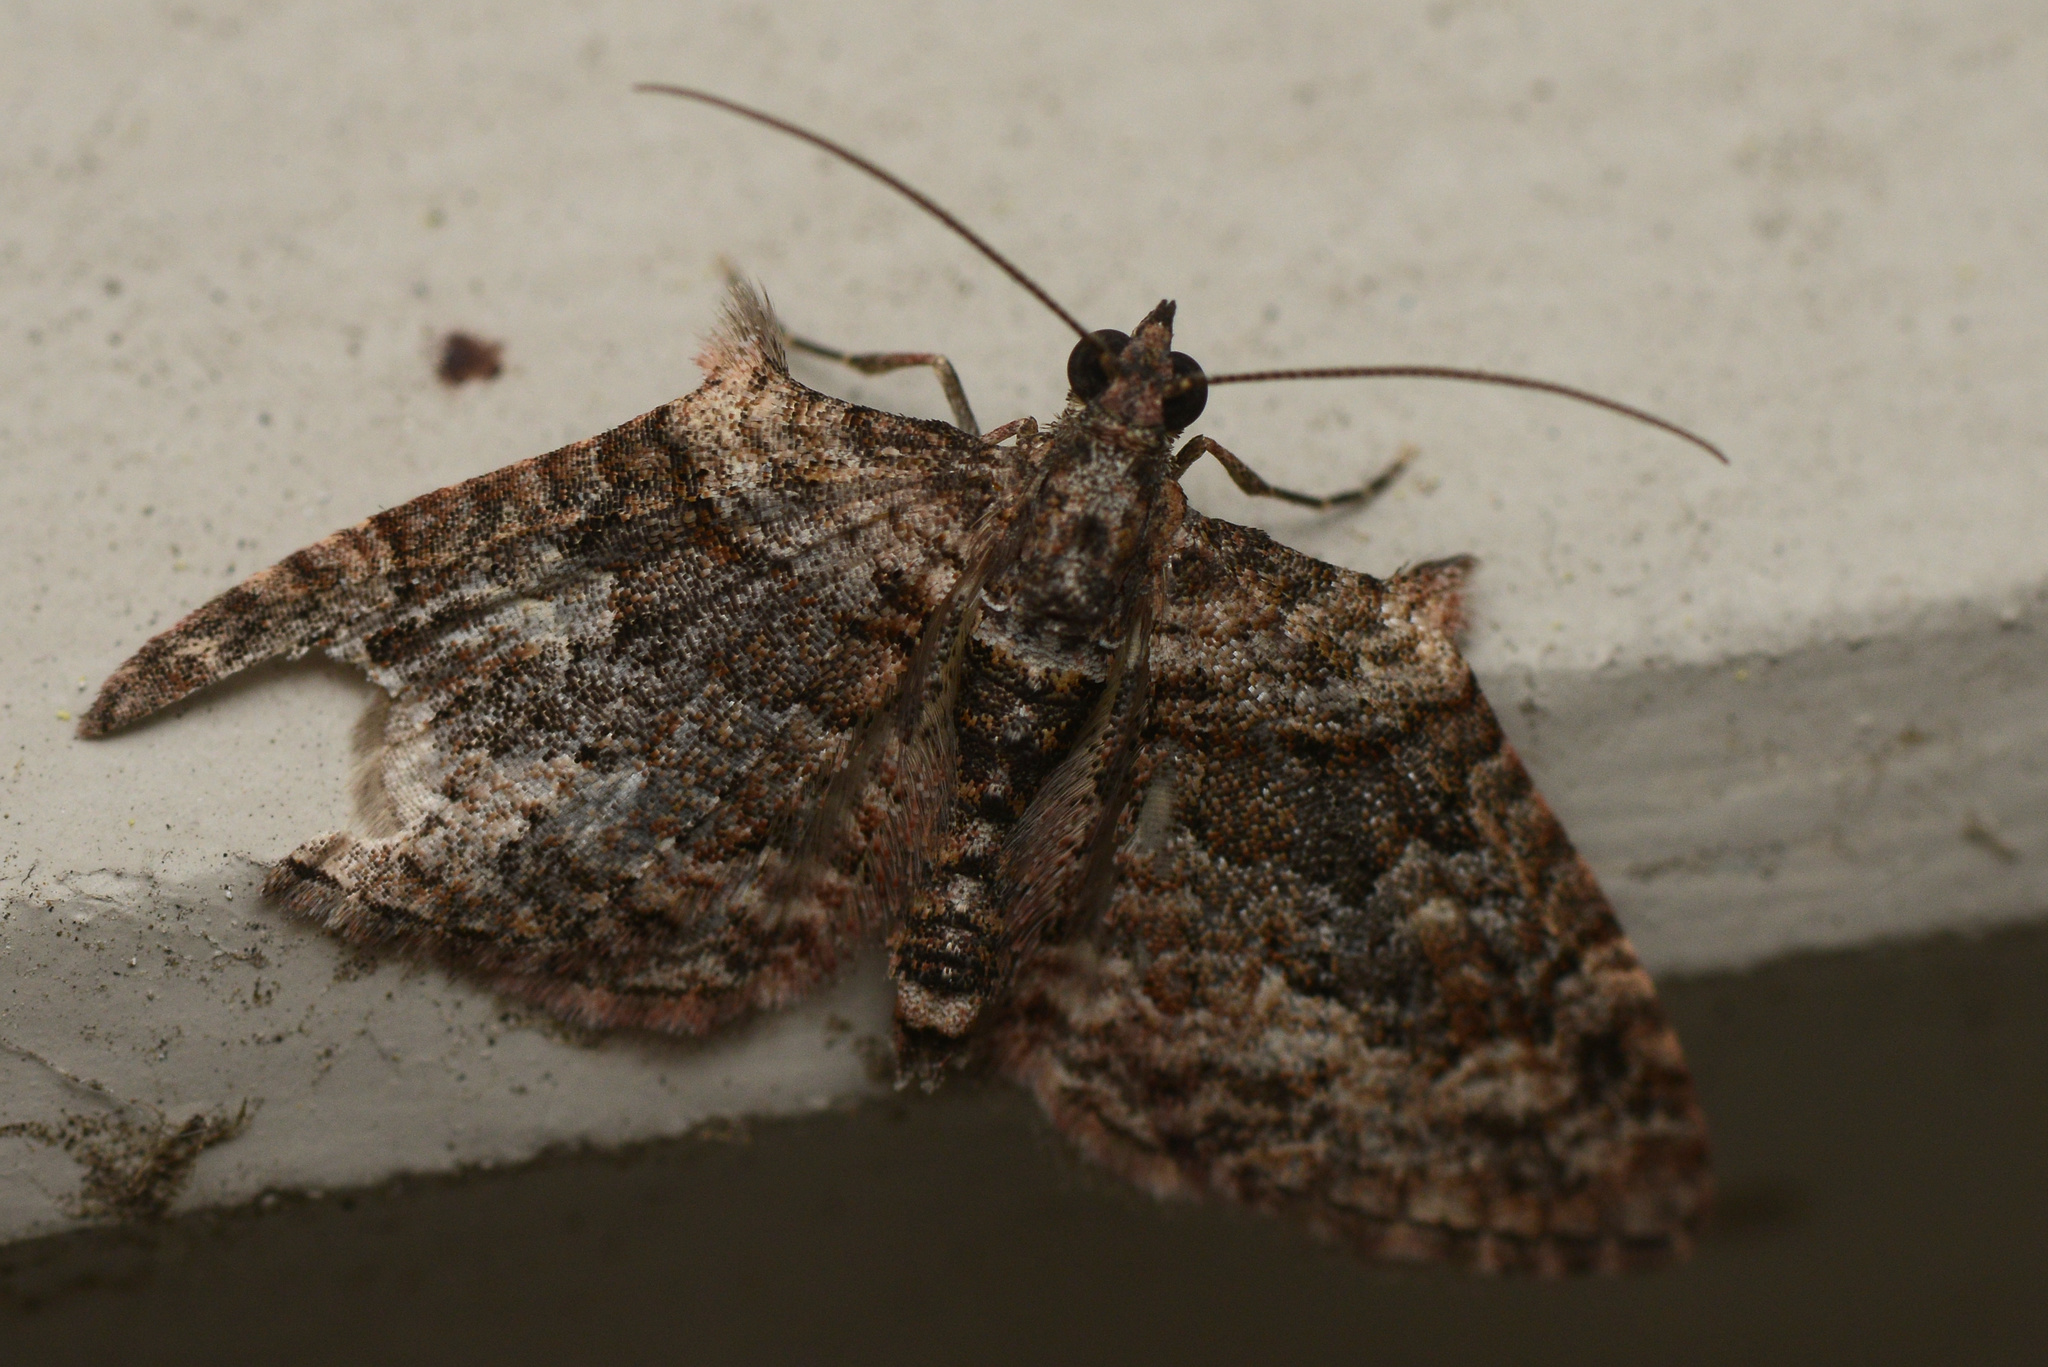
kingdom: Animalia
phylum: Arthropoda
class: Insecta
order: Lepidoptera
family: Geometridae
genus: Phrissogonus
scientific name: Phrissogonus laticostata
